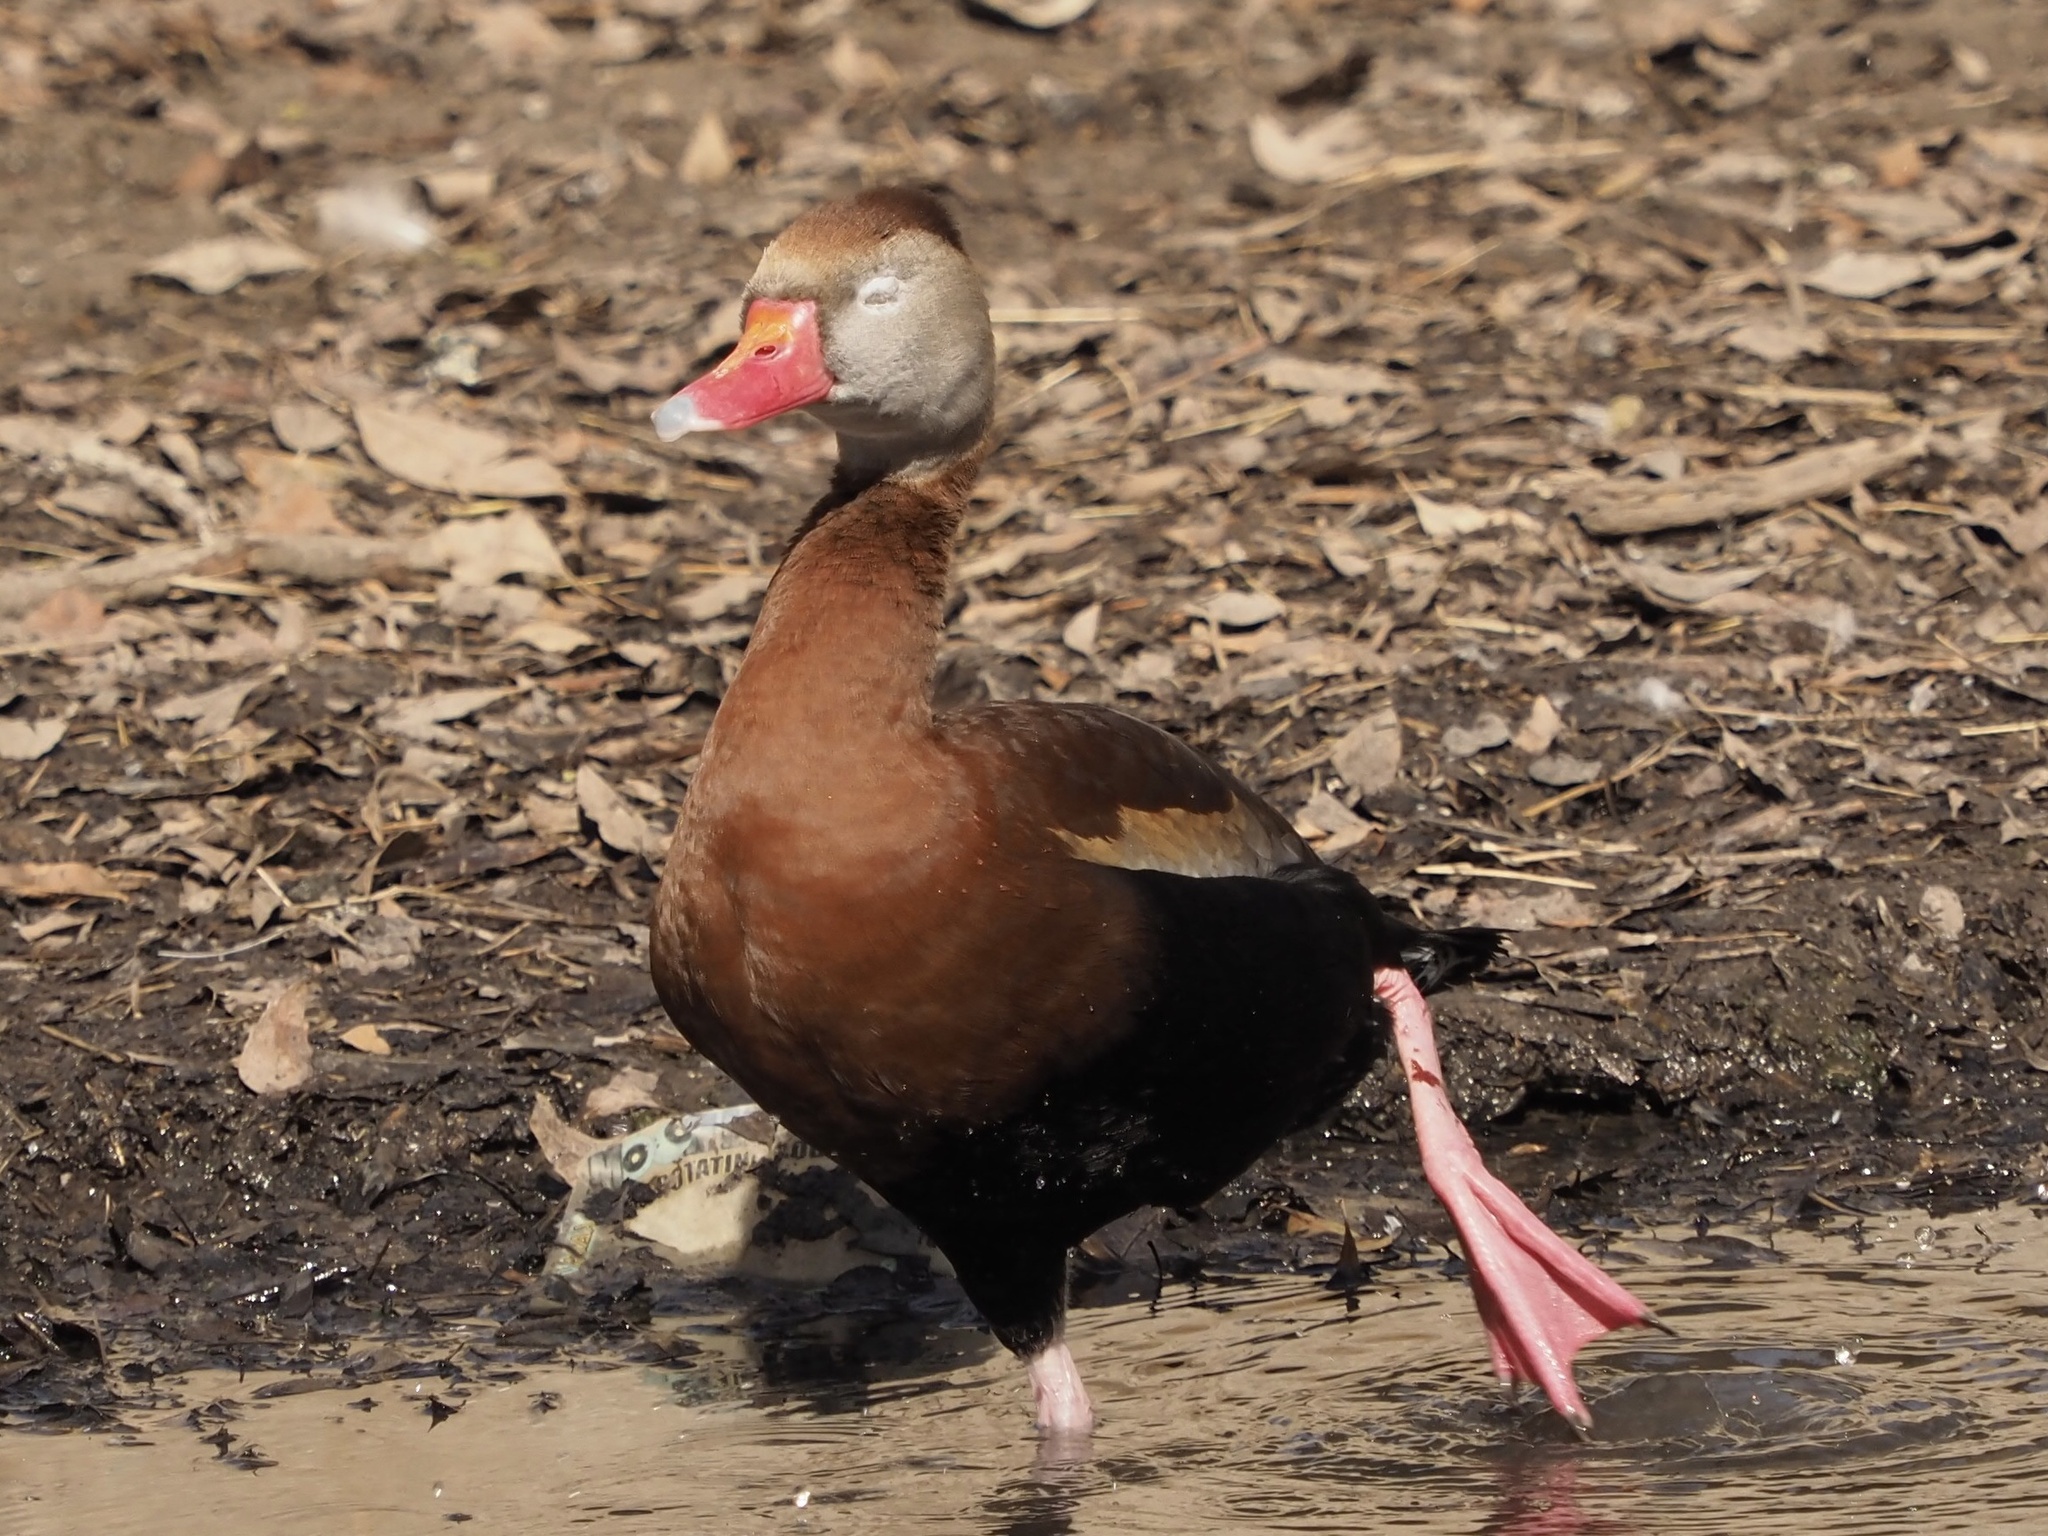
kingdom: Animalia
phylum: Chordata
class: Aves
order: Anseriformes
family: Anatidae
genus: Dendrocygna
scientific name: Dendrocygna autumnalis
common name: Black-bellied whistling duck
